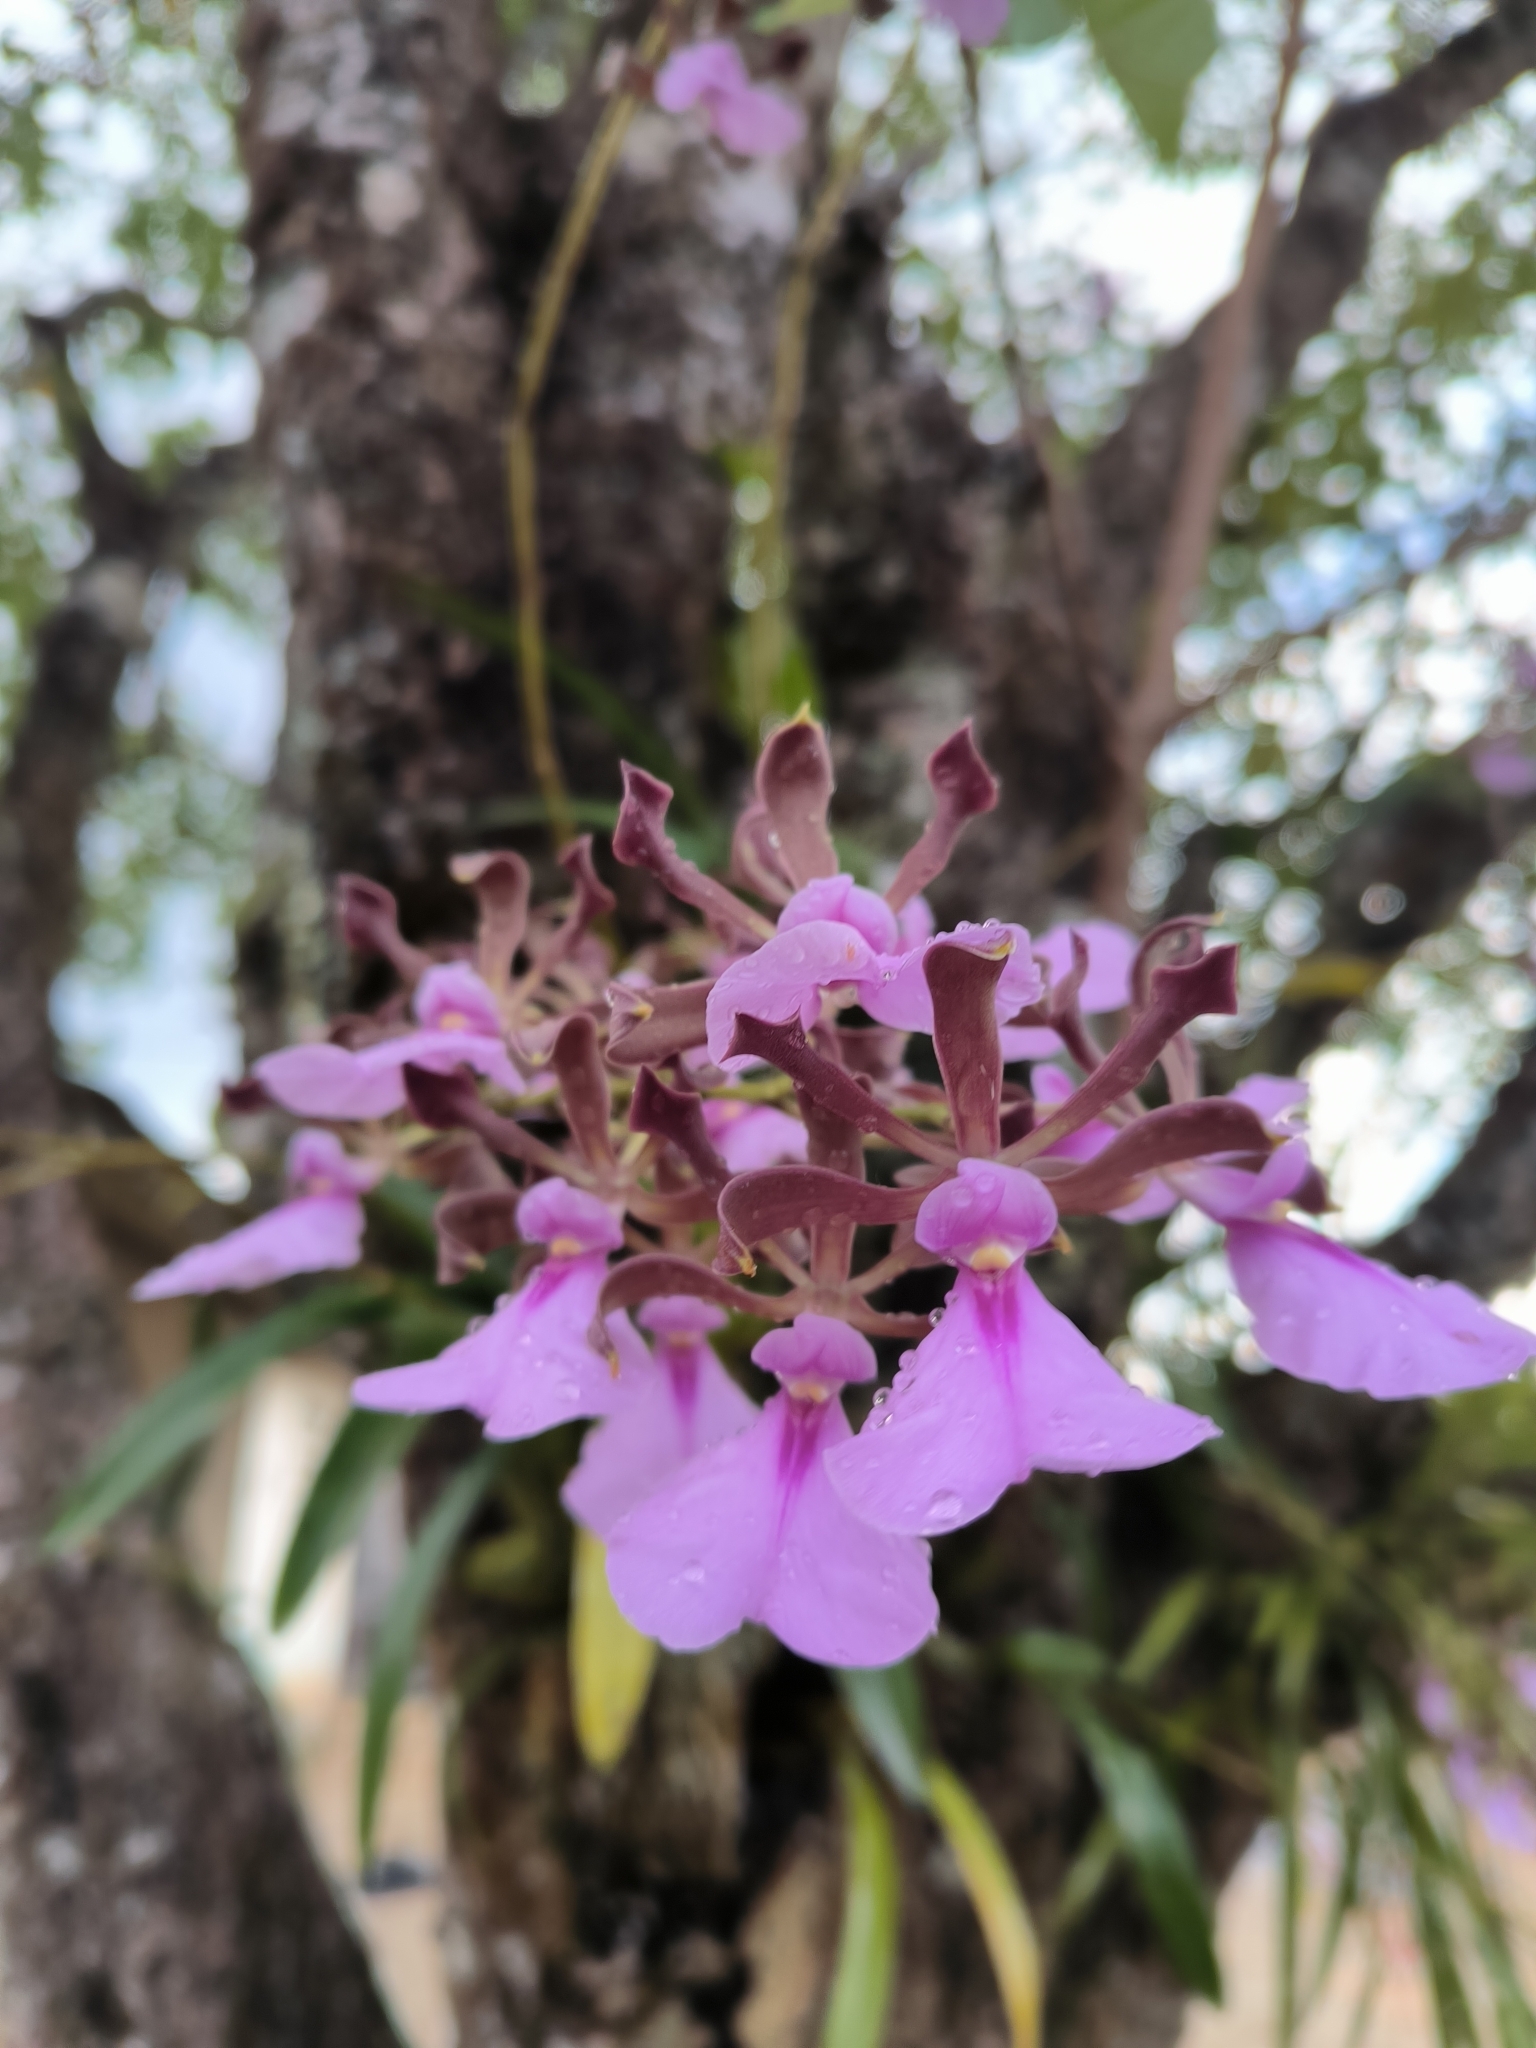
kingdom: Plantae
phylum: Tracheophyta
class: Liliopsida
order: Asparagales
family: Orchidaceae
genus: Encyclia
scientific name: Encyclia cordigera
